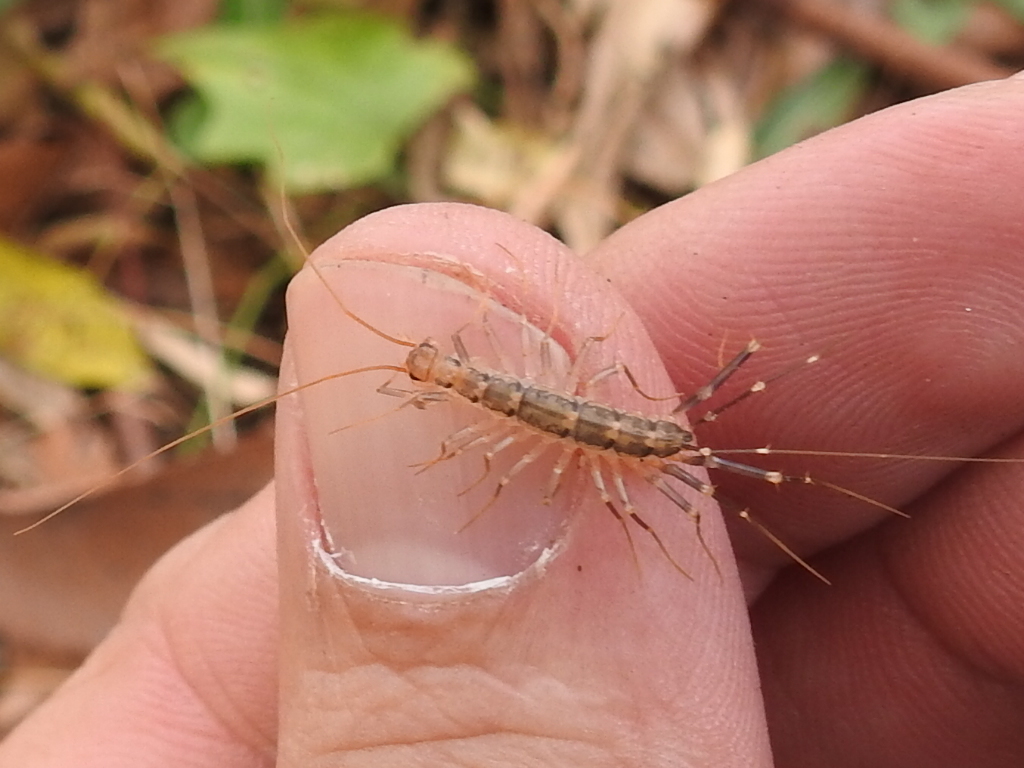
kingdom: Animalia
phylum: Arthropoda
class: Chilopoda
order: Scutigeromorpha
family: Scutigeridae
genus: Scutigera
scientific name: Scutigera coleoptrata
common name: House centipede
